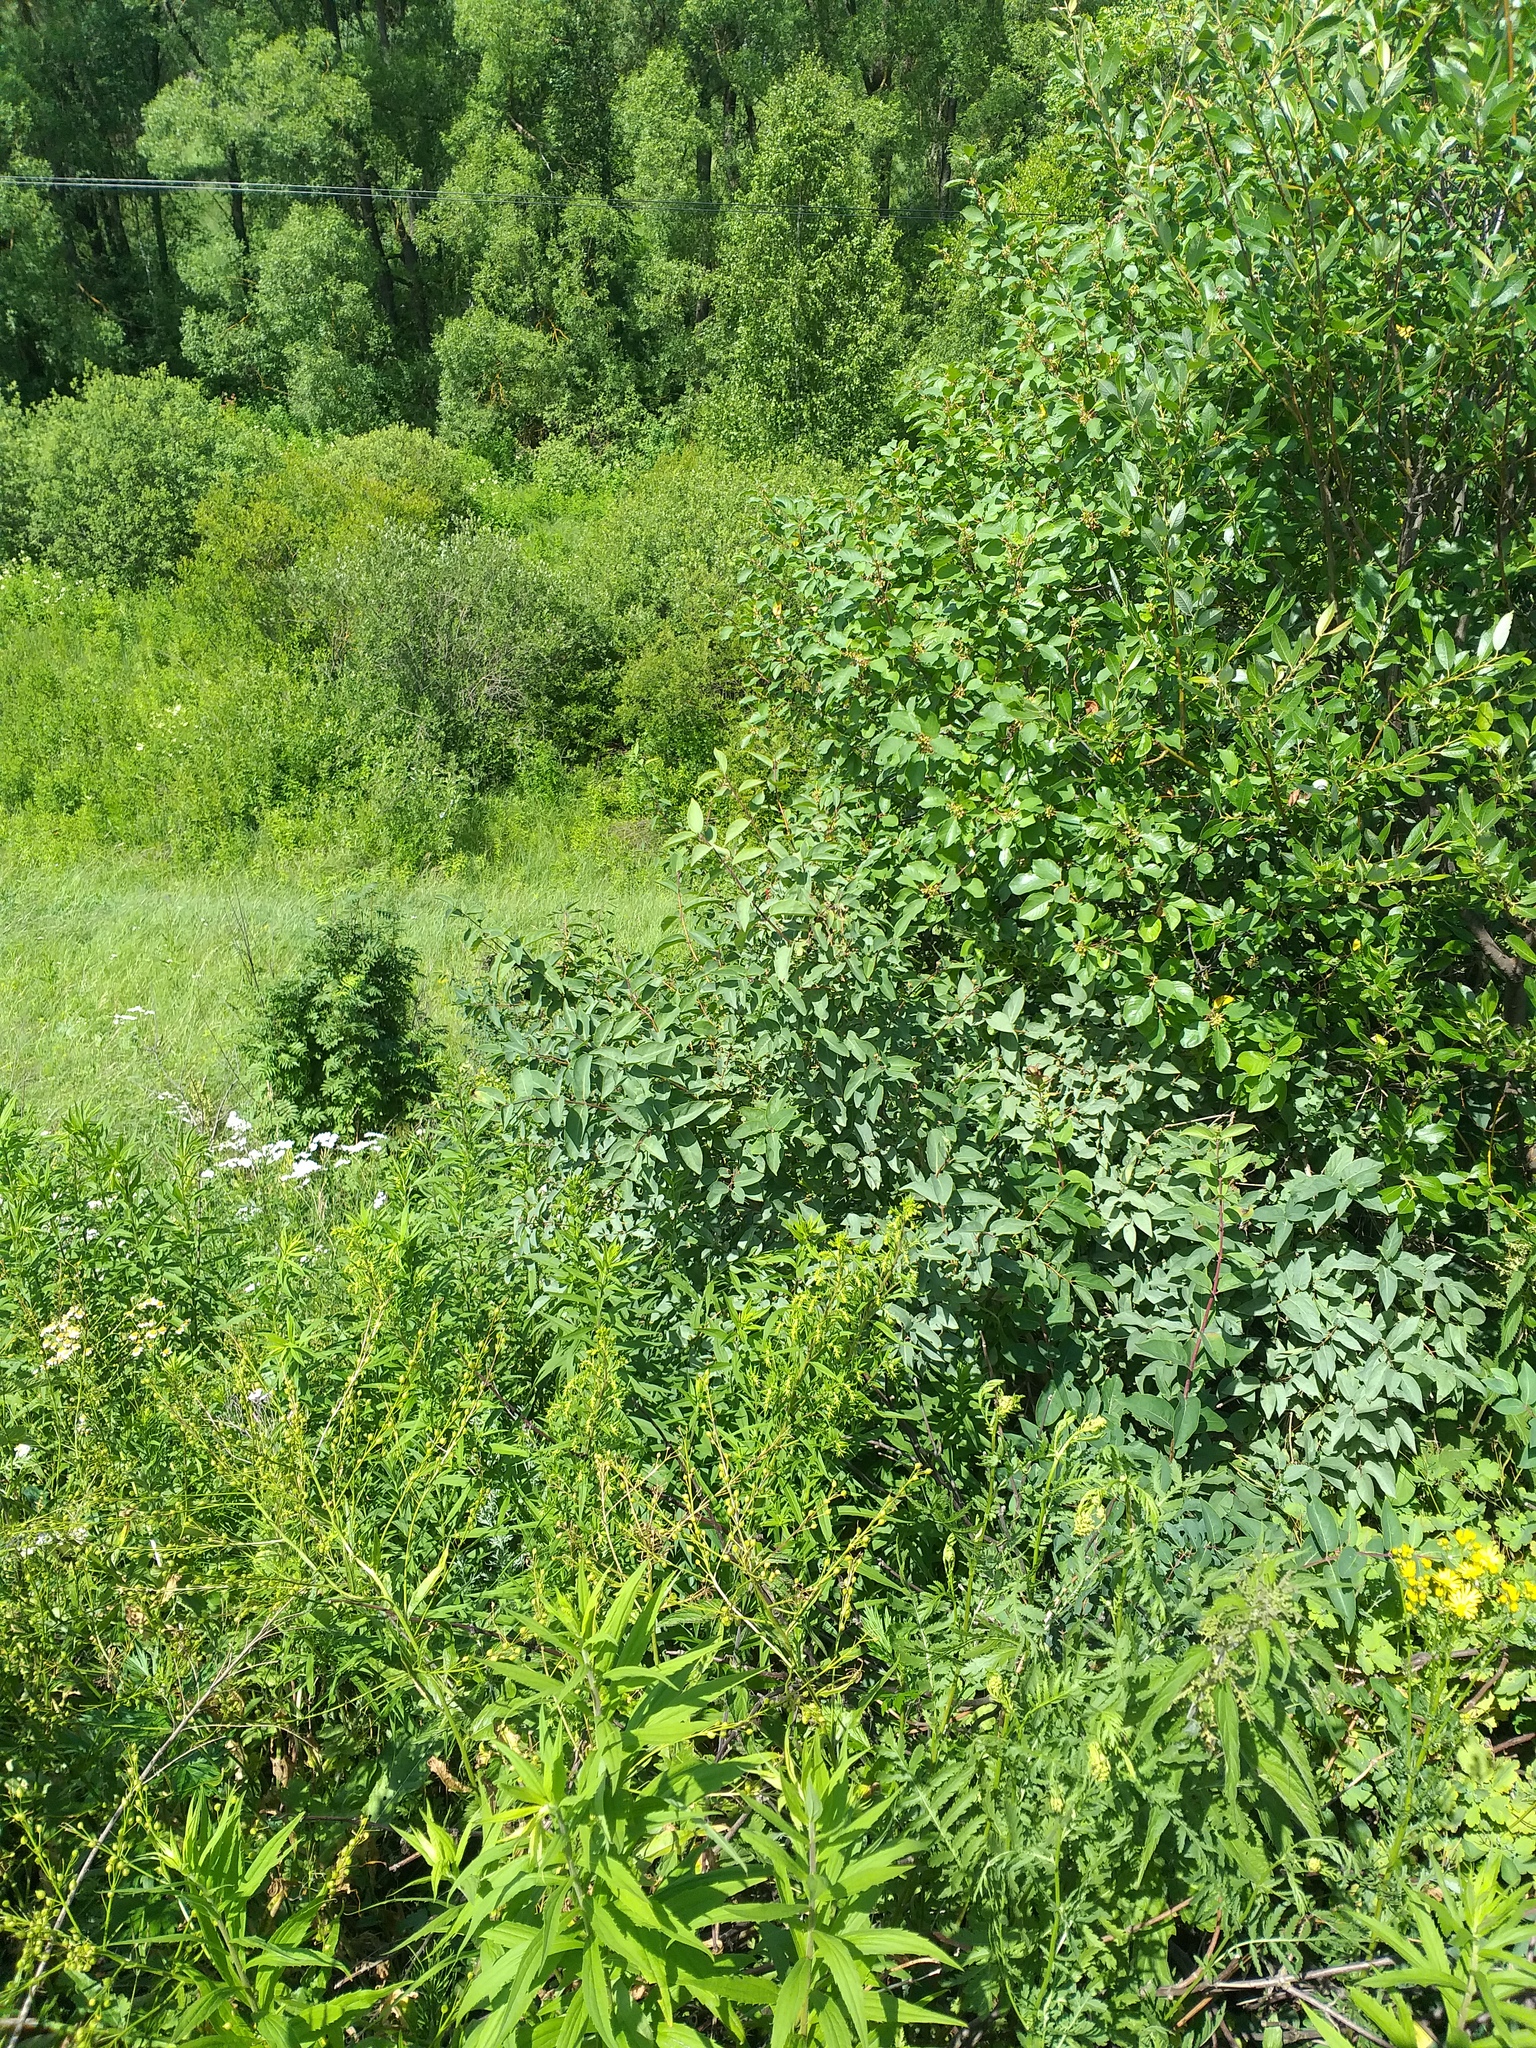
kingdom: Plantae
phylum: Tracheophyta
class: Magnoliopsida
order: Dipsacales
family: Caprifoliaceae
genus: Lonicera
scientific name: Lonicera tatarica
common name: Tatarian honeysuckle
